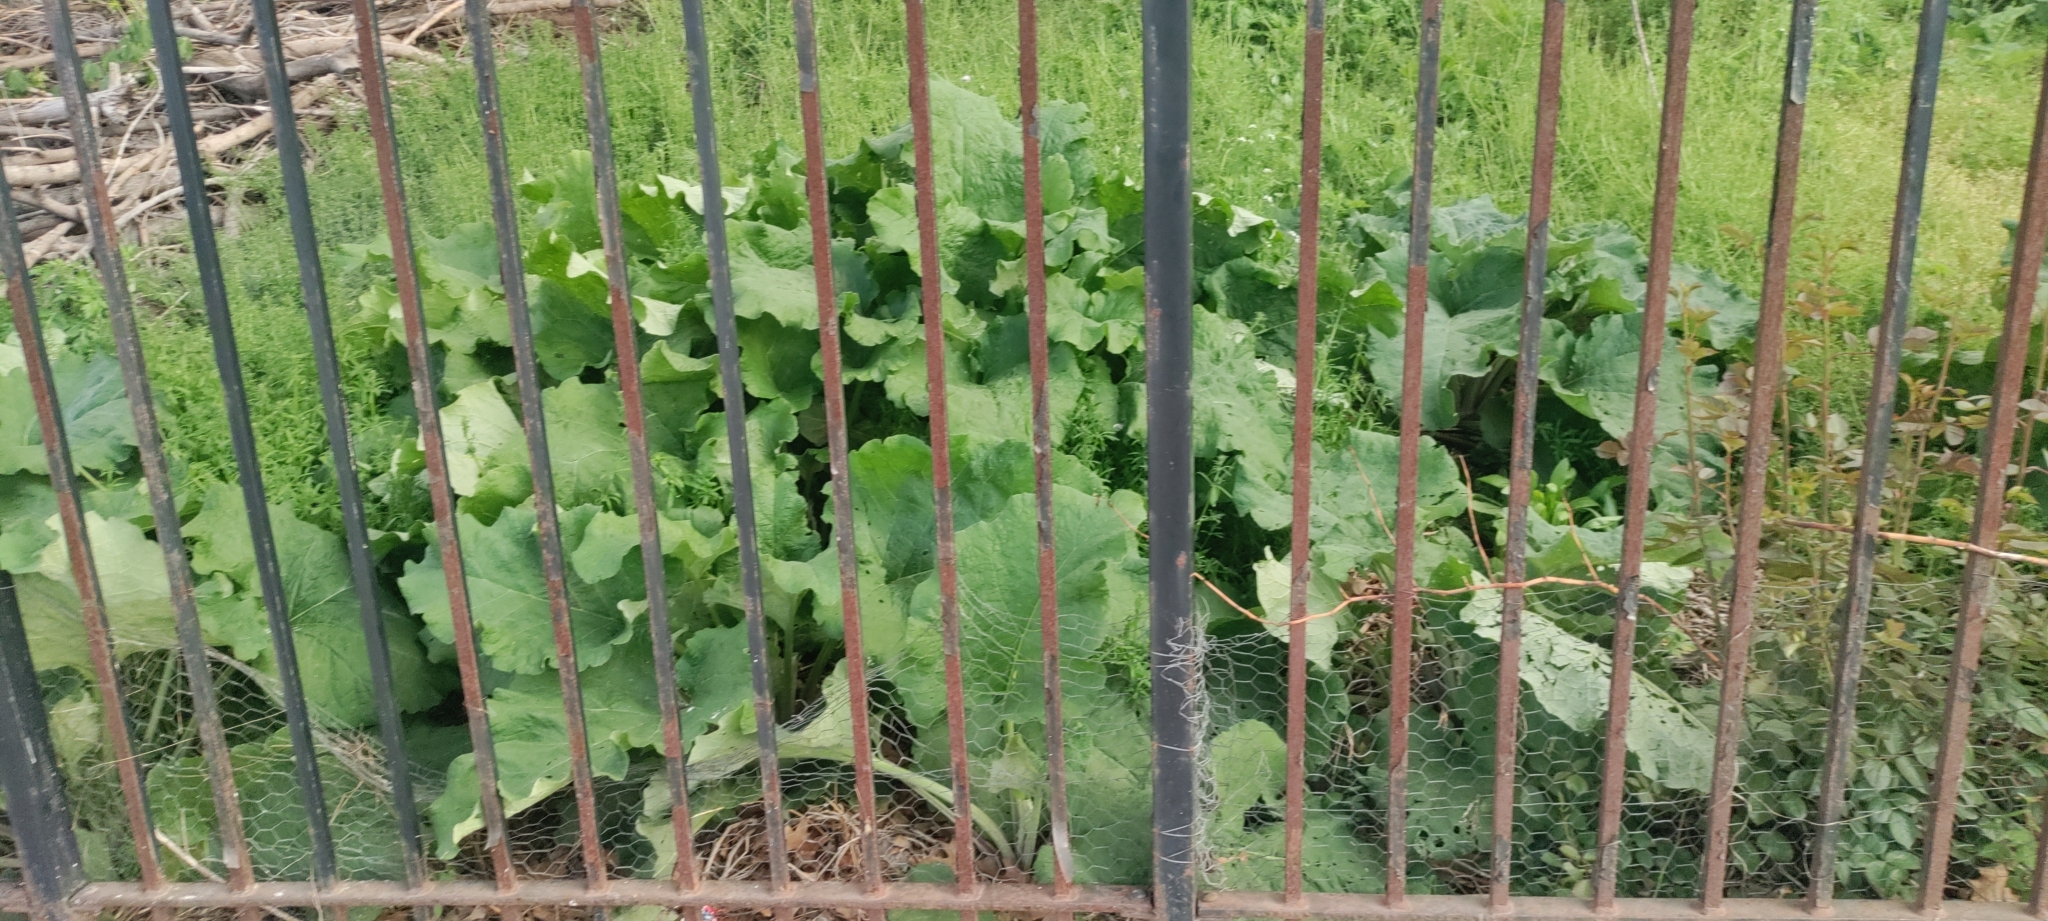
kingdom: Plantae
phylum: Tracheophyta
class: Magnoliopsida
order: Asterales
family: Asteraceae
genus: Arctium
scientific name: Arctium
